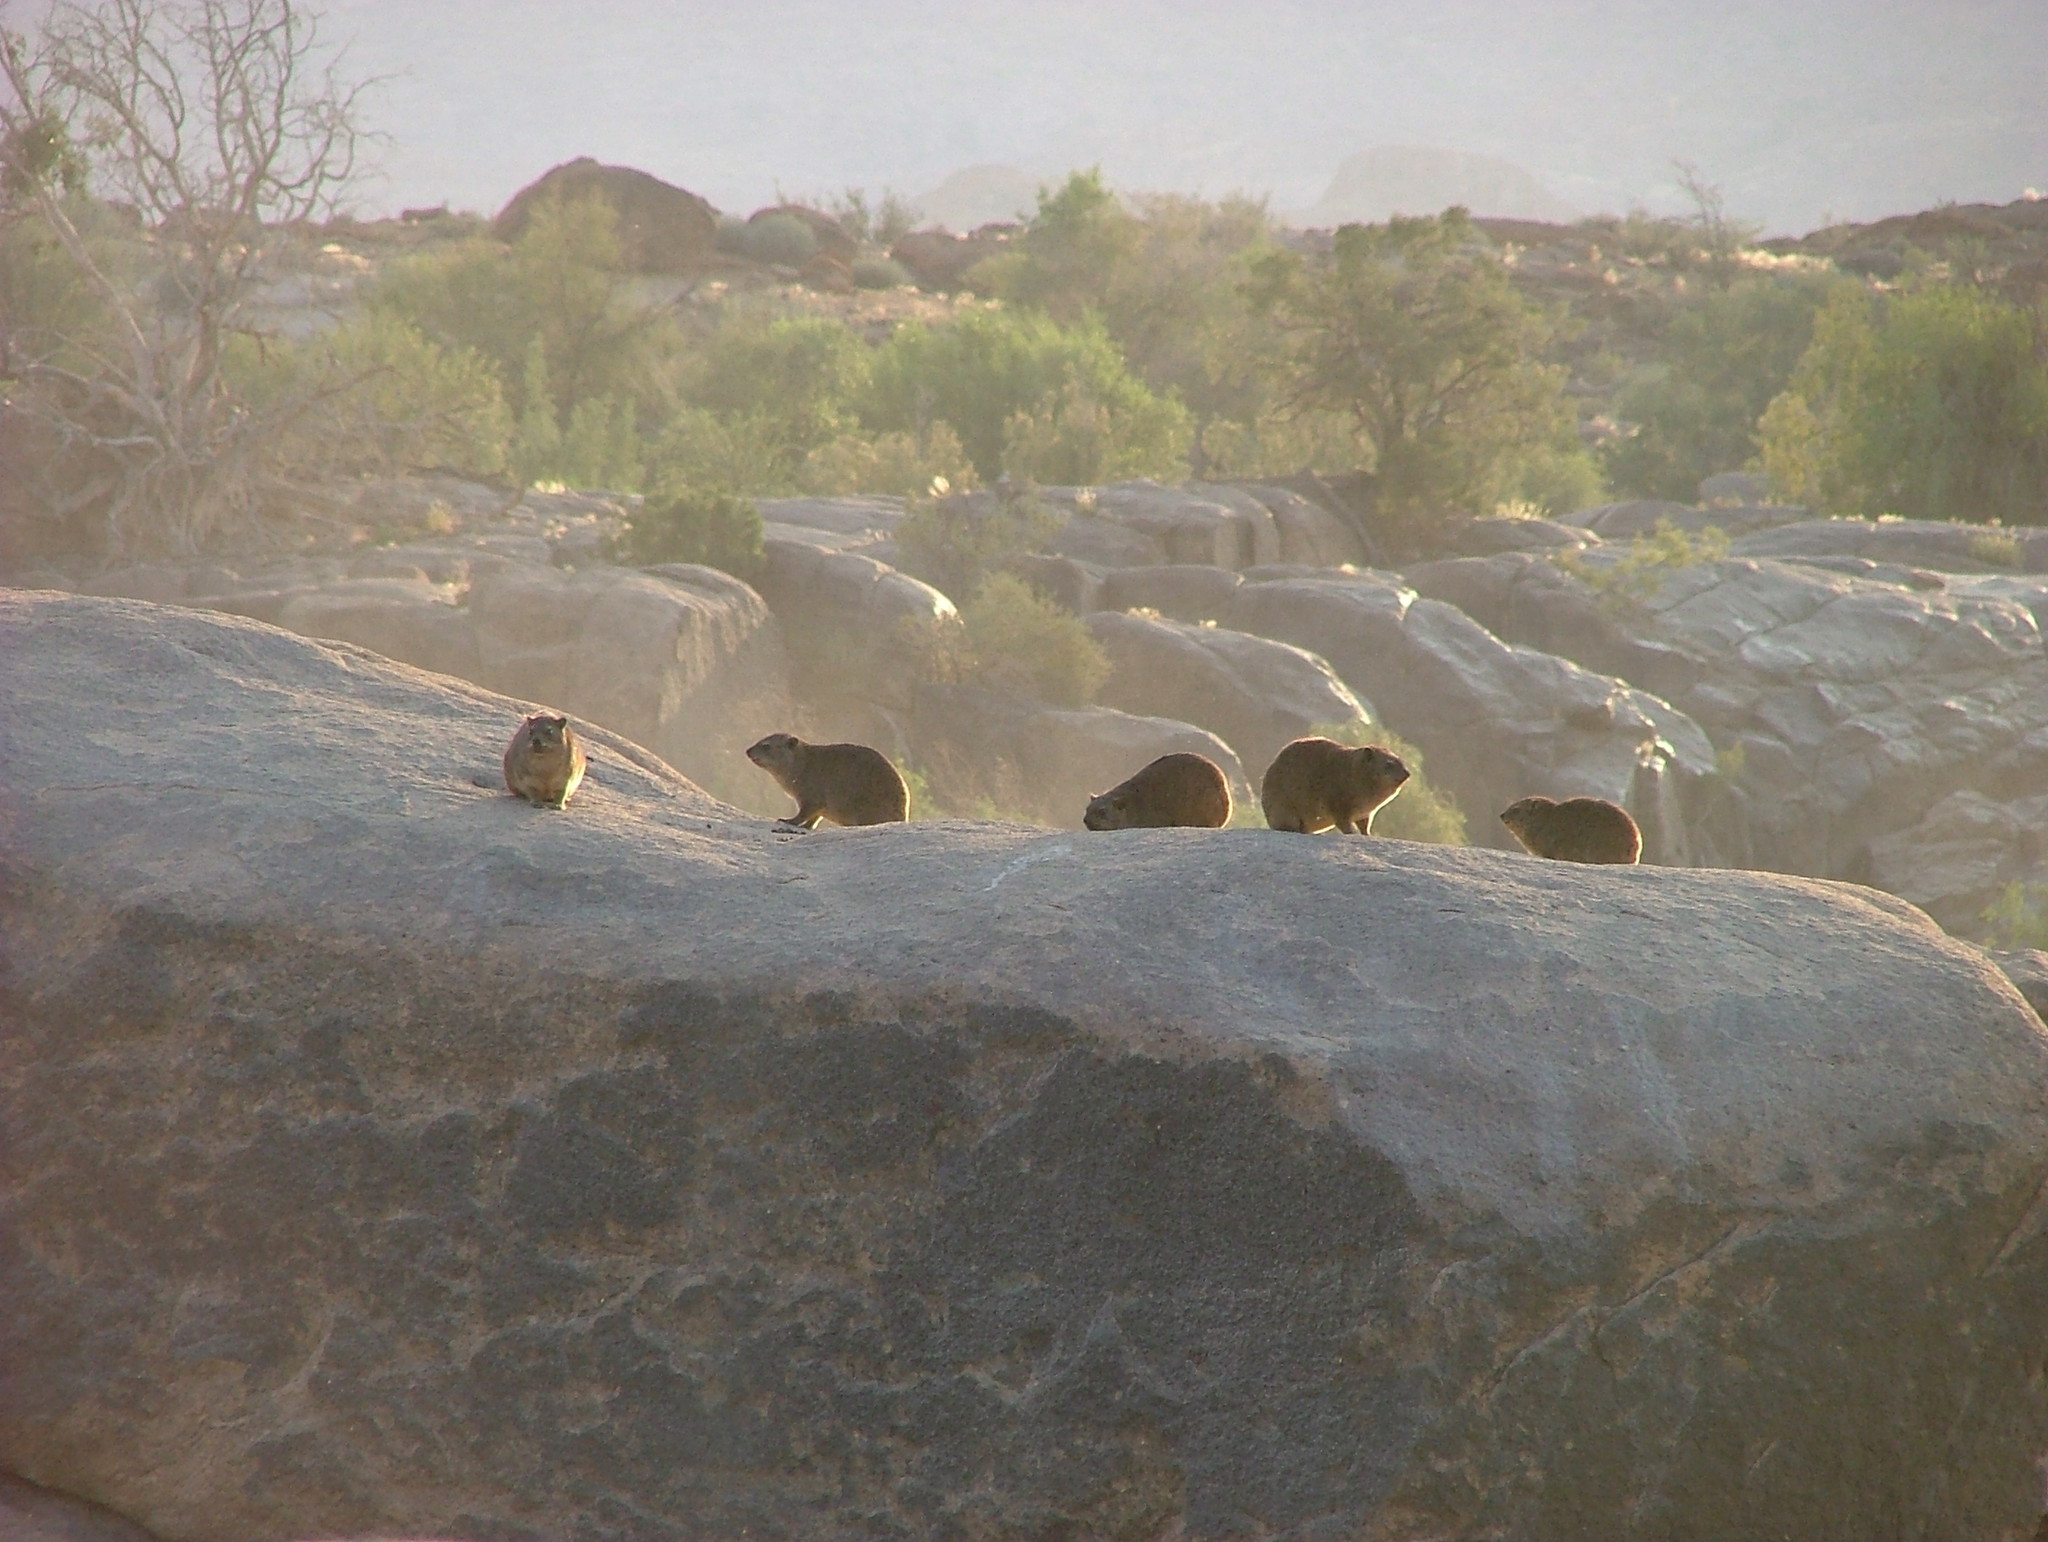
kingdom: Animalia
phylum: Chordata
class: Mammalia
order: Hyracoidea
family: Procaviidae
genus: Procavia
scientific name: Procavia capensis
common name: Rock hyrax
